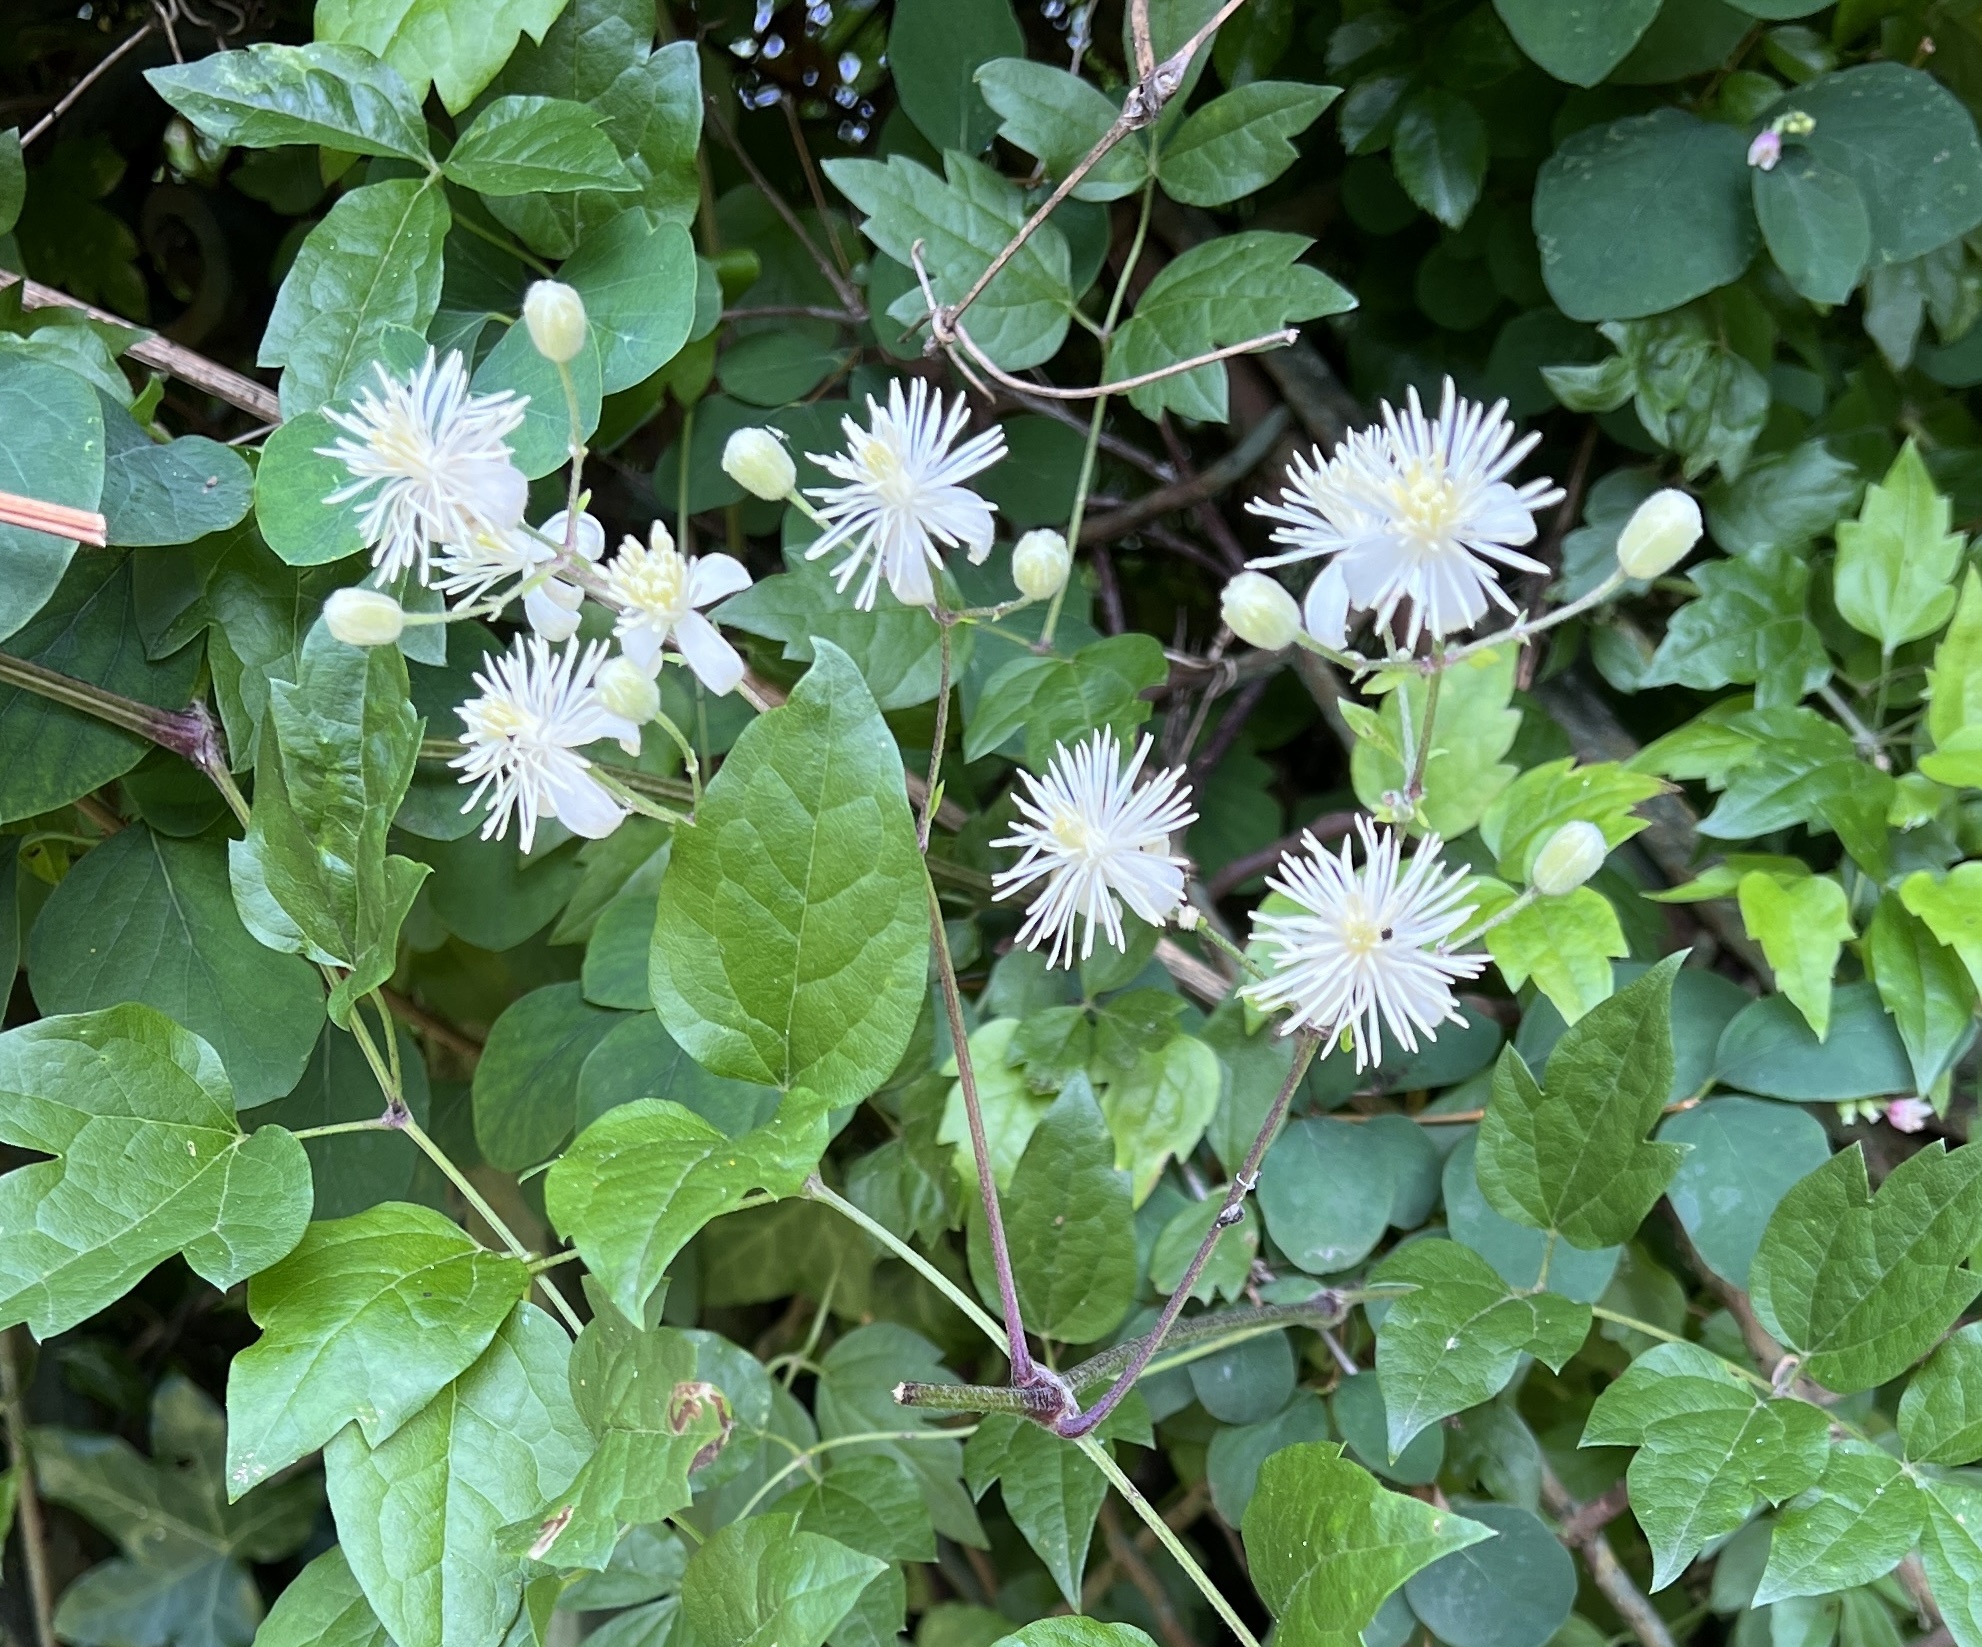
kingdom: Plantae
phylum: Tracheophyta
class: Magnoliopsida
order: Ranunculales
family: Ranunculaceae
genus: Clematis
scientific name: Clematis vitalba
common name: Evergreen clematis
